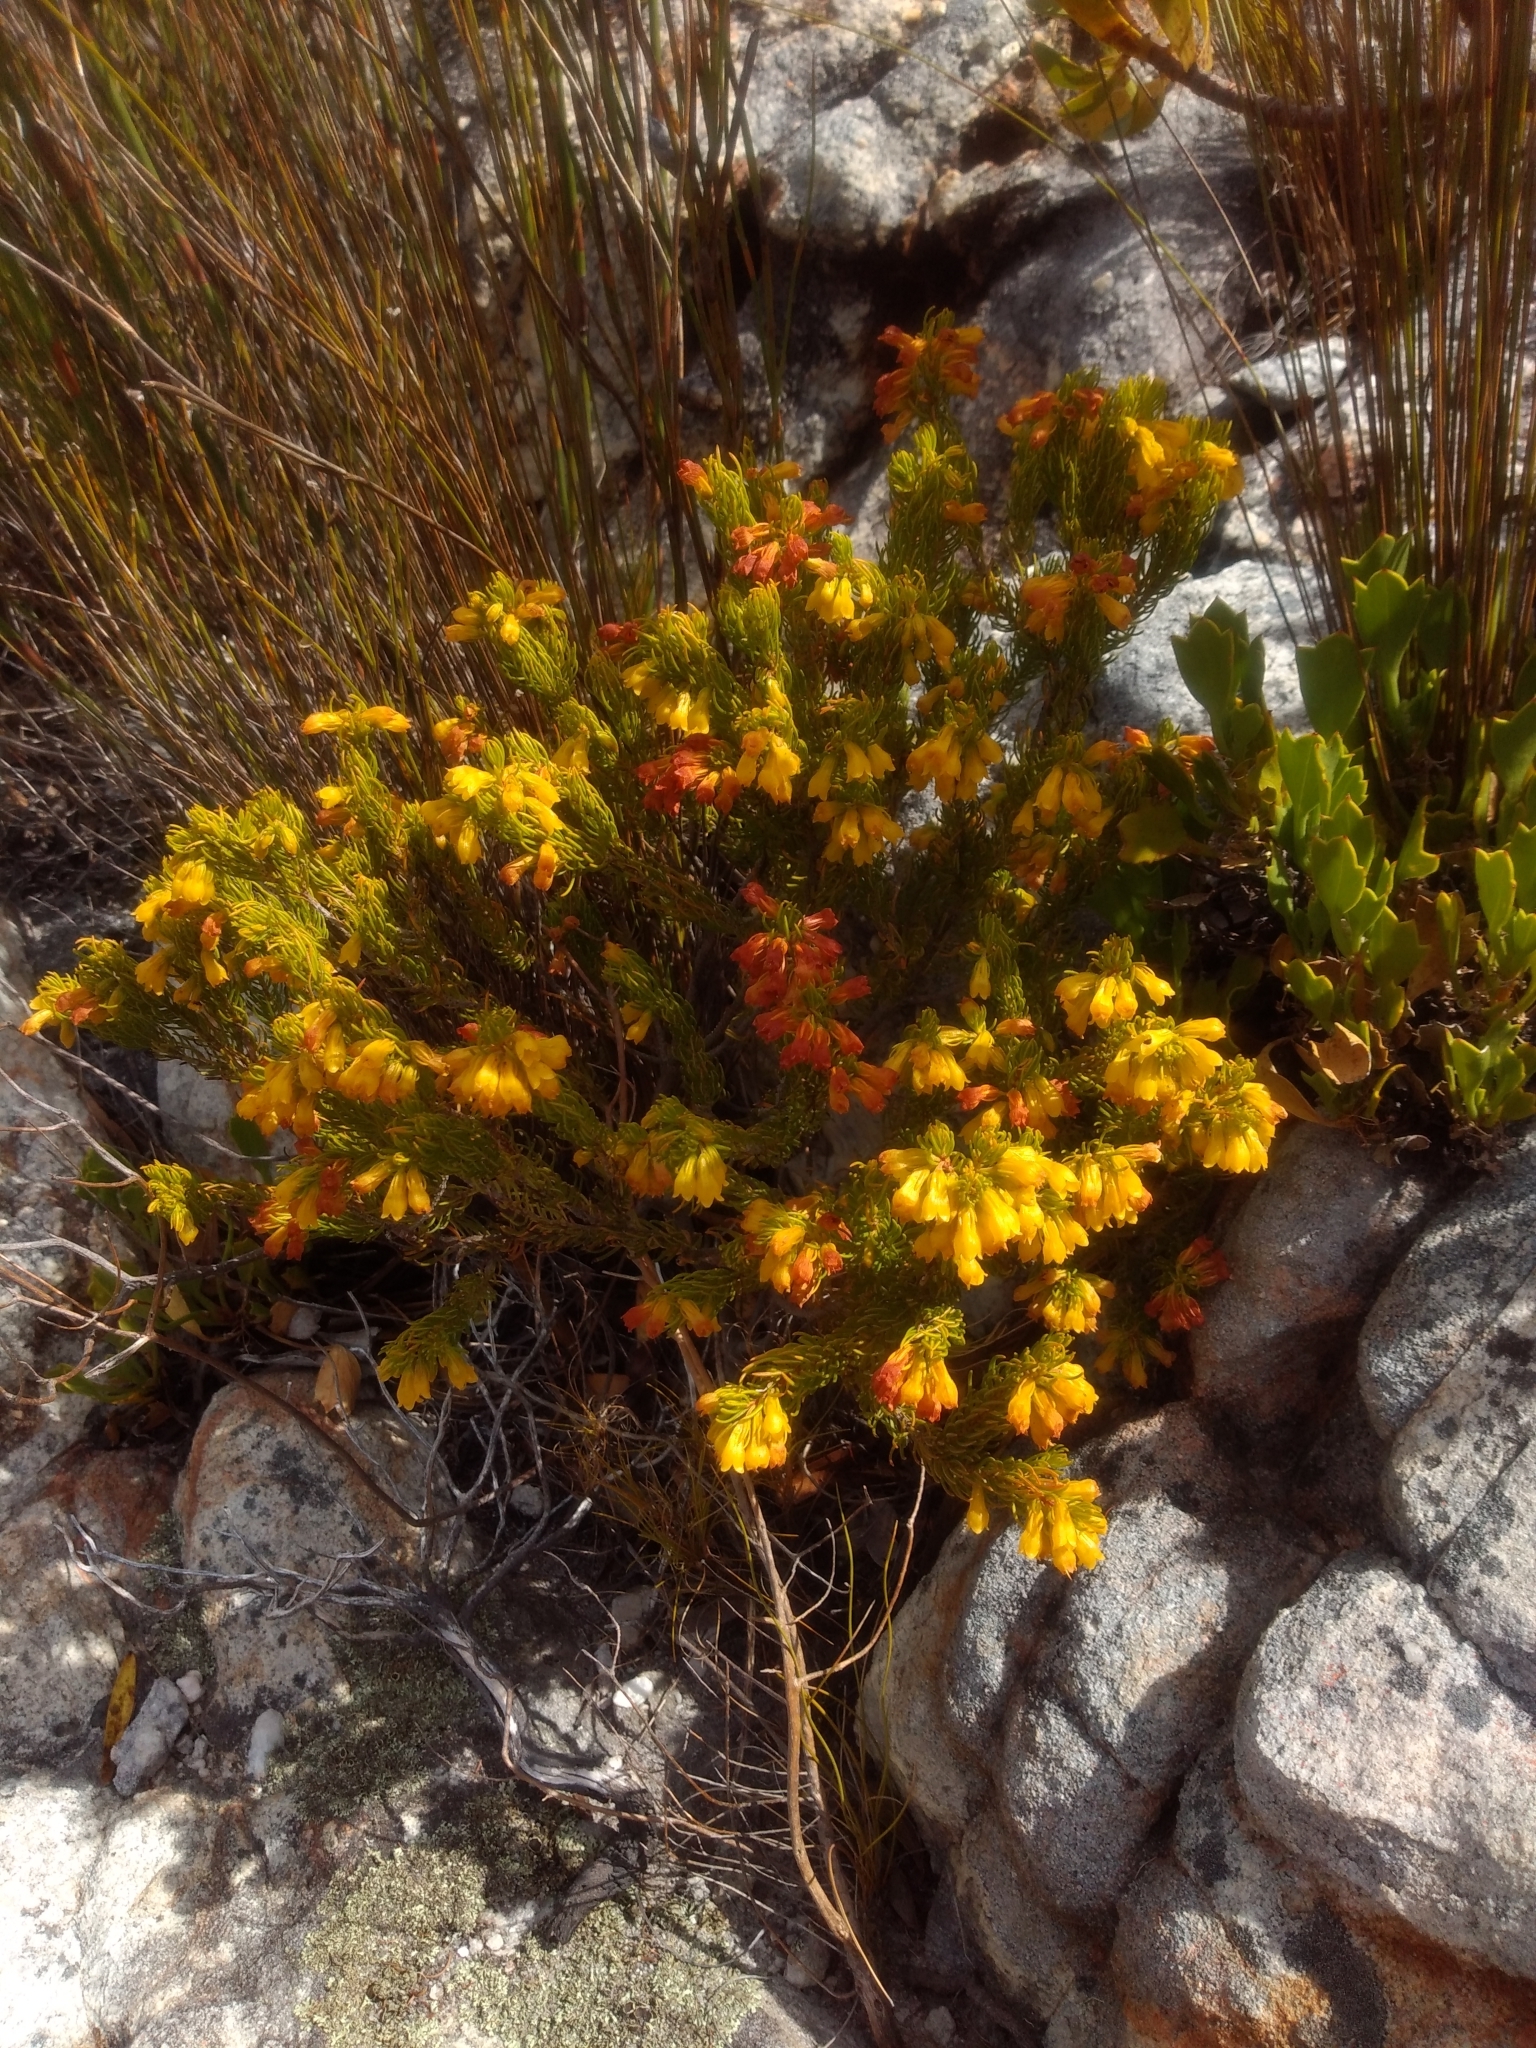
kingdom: Plantae
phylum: Tracheophyta
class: Magnoliopsida
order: Ericales
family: Ericaceae
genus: Erica
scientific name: Erica petrusiana
